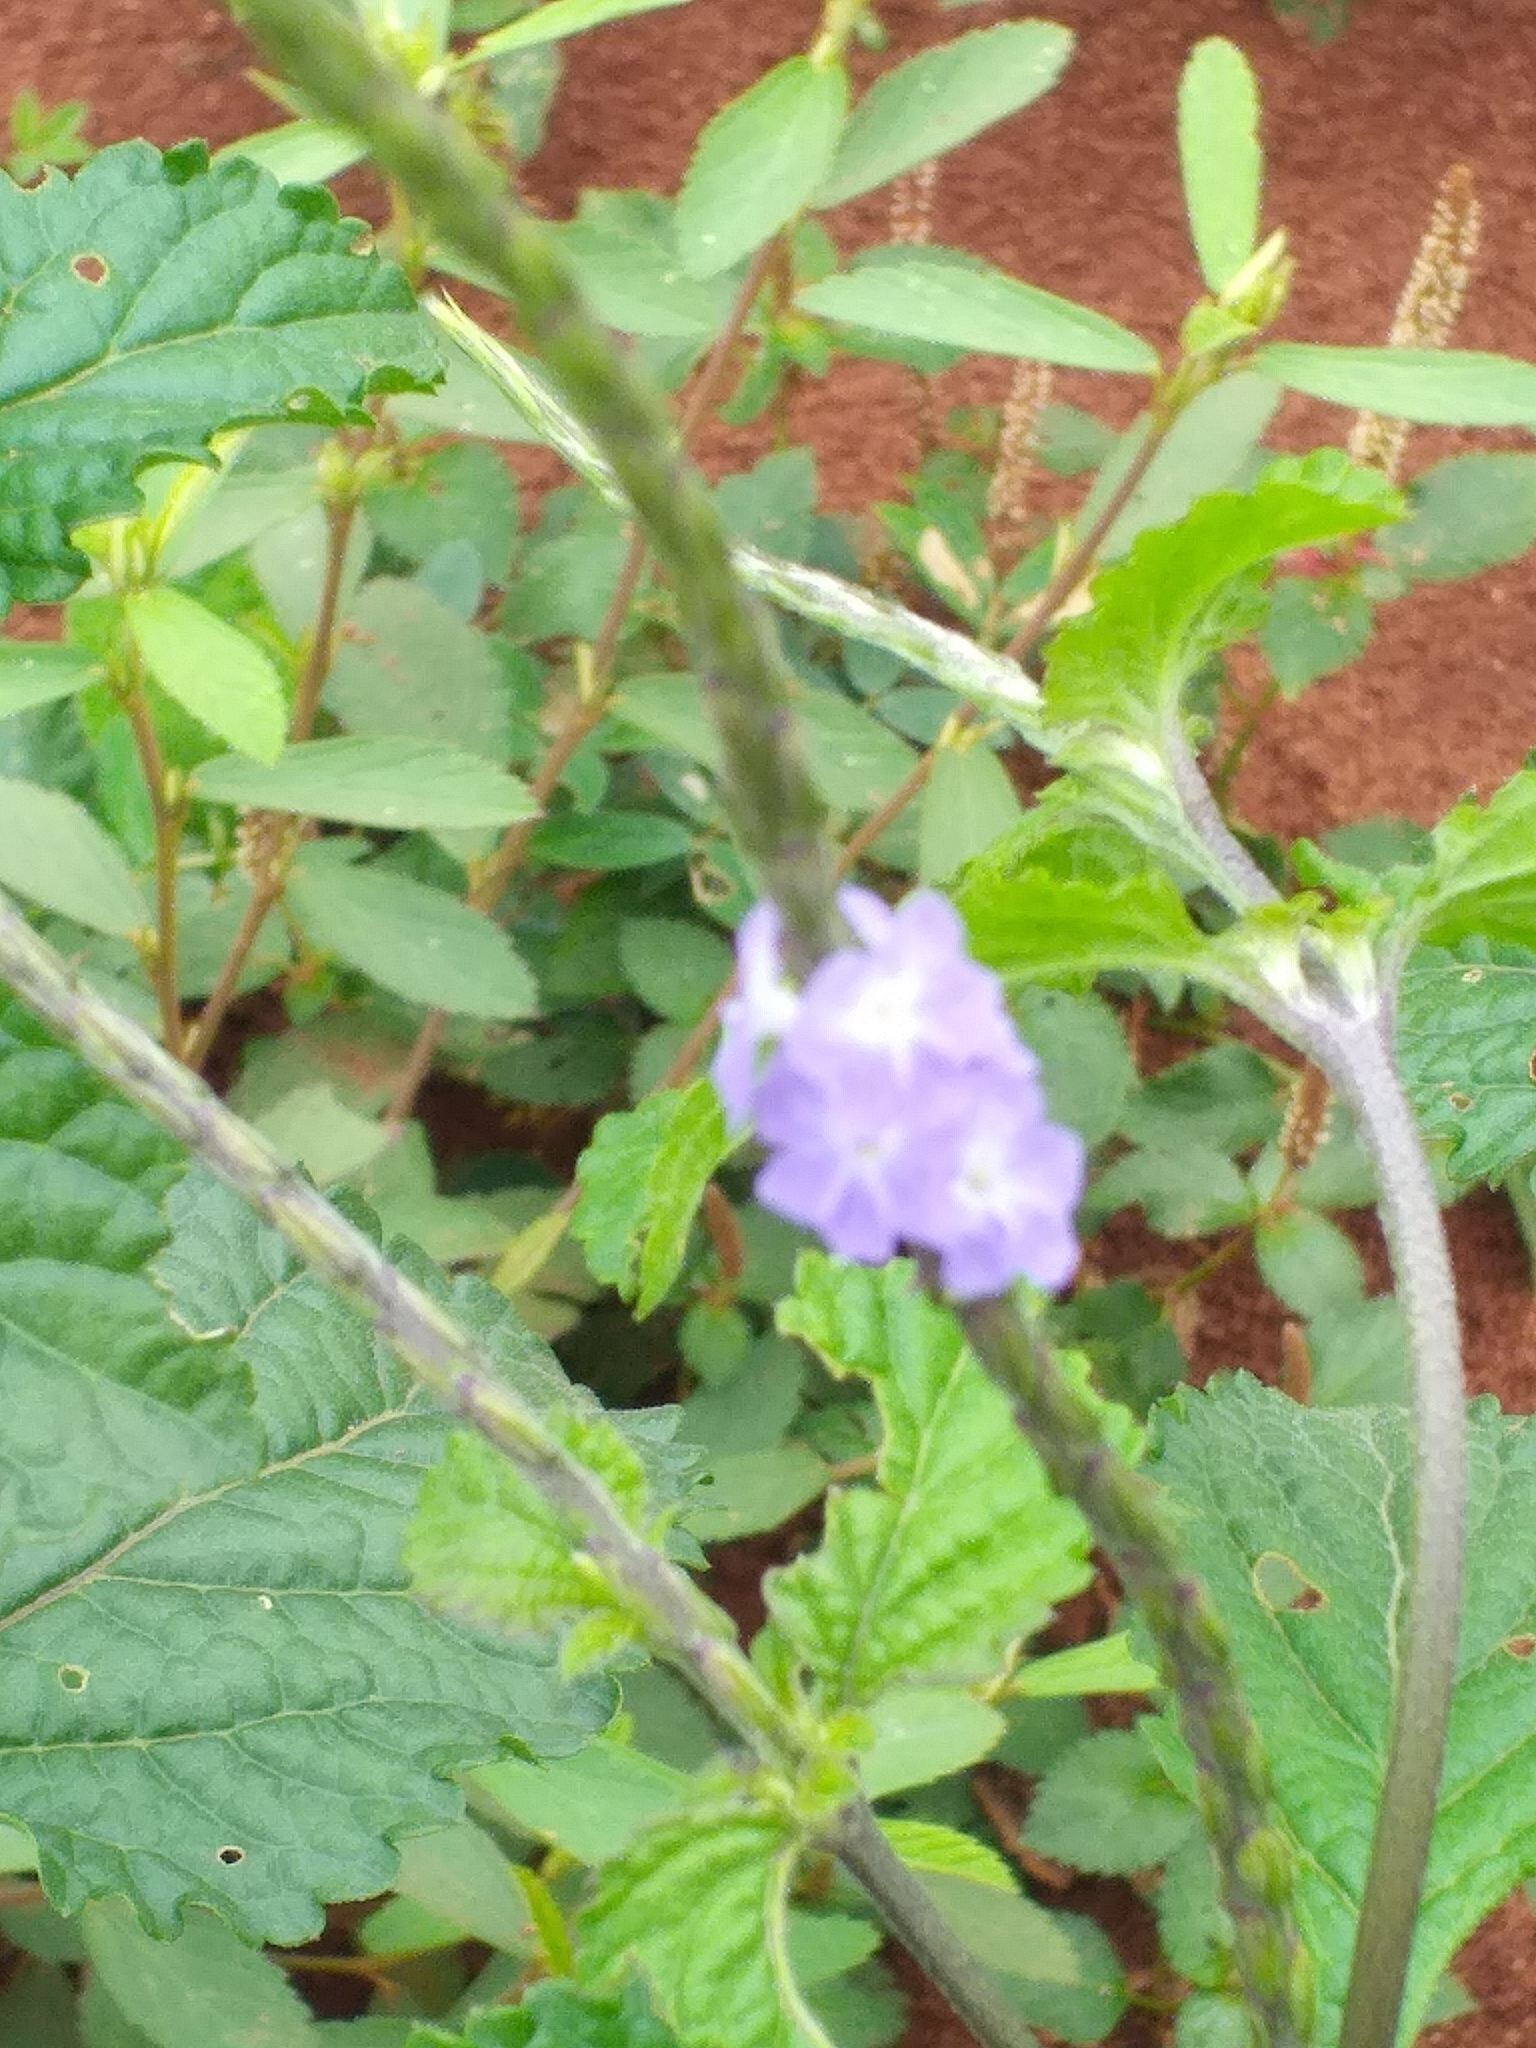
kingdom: Plantae
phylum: Tracheophyta
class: Magnoliopsida
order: Lamiales
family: Verbenaceae
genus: Stachytarpheta
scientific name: Stachytarpheta cayennensis
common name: Cayenne porterweed
